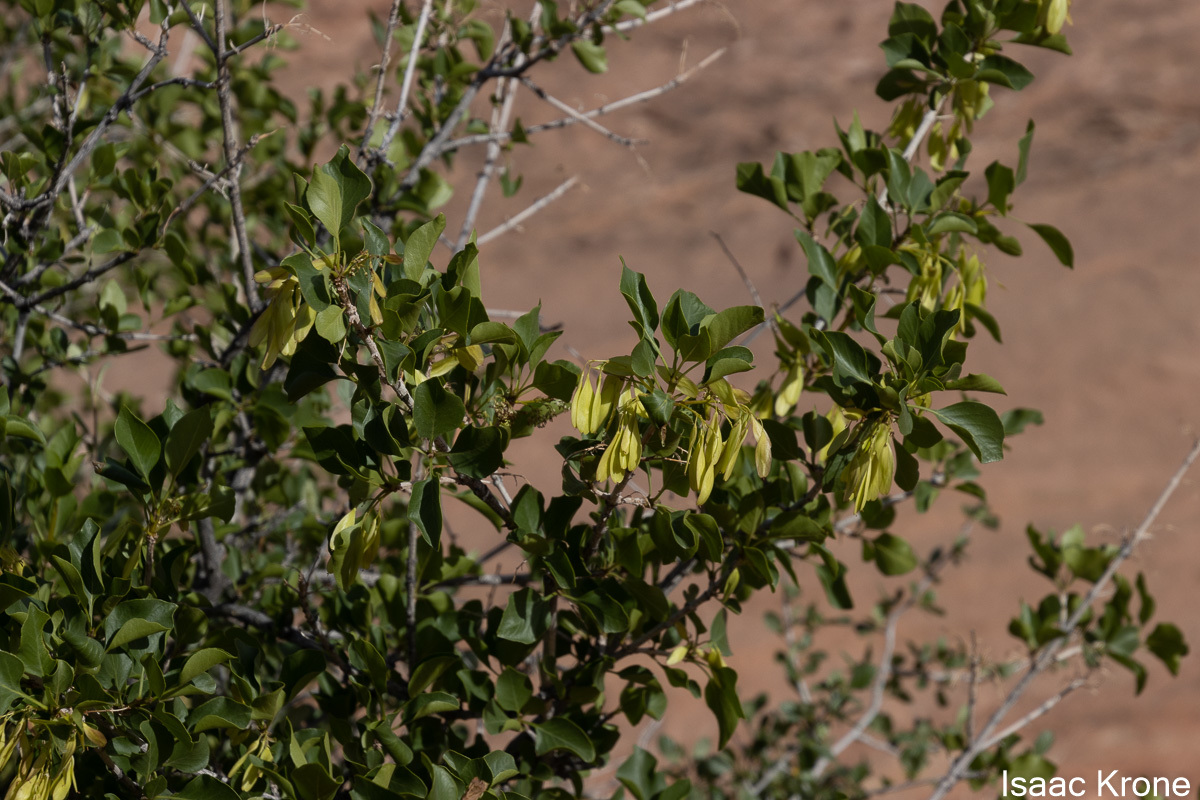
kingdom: Plantae
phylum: Tracheophyta
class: Magnoliopsida
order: Lamiales
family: Oleaceae
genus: Fraxinus
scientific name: Fraxinus anomala
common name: Utah ash
